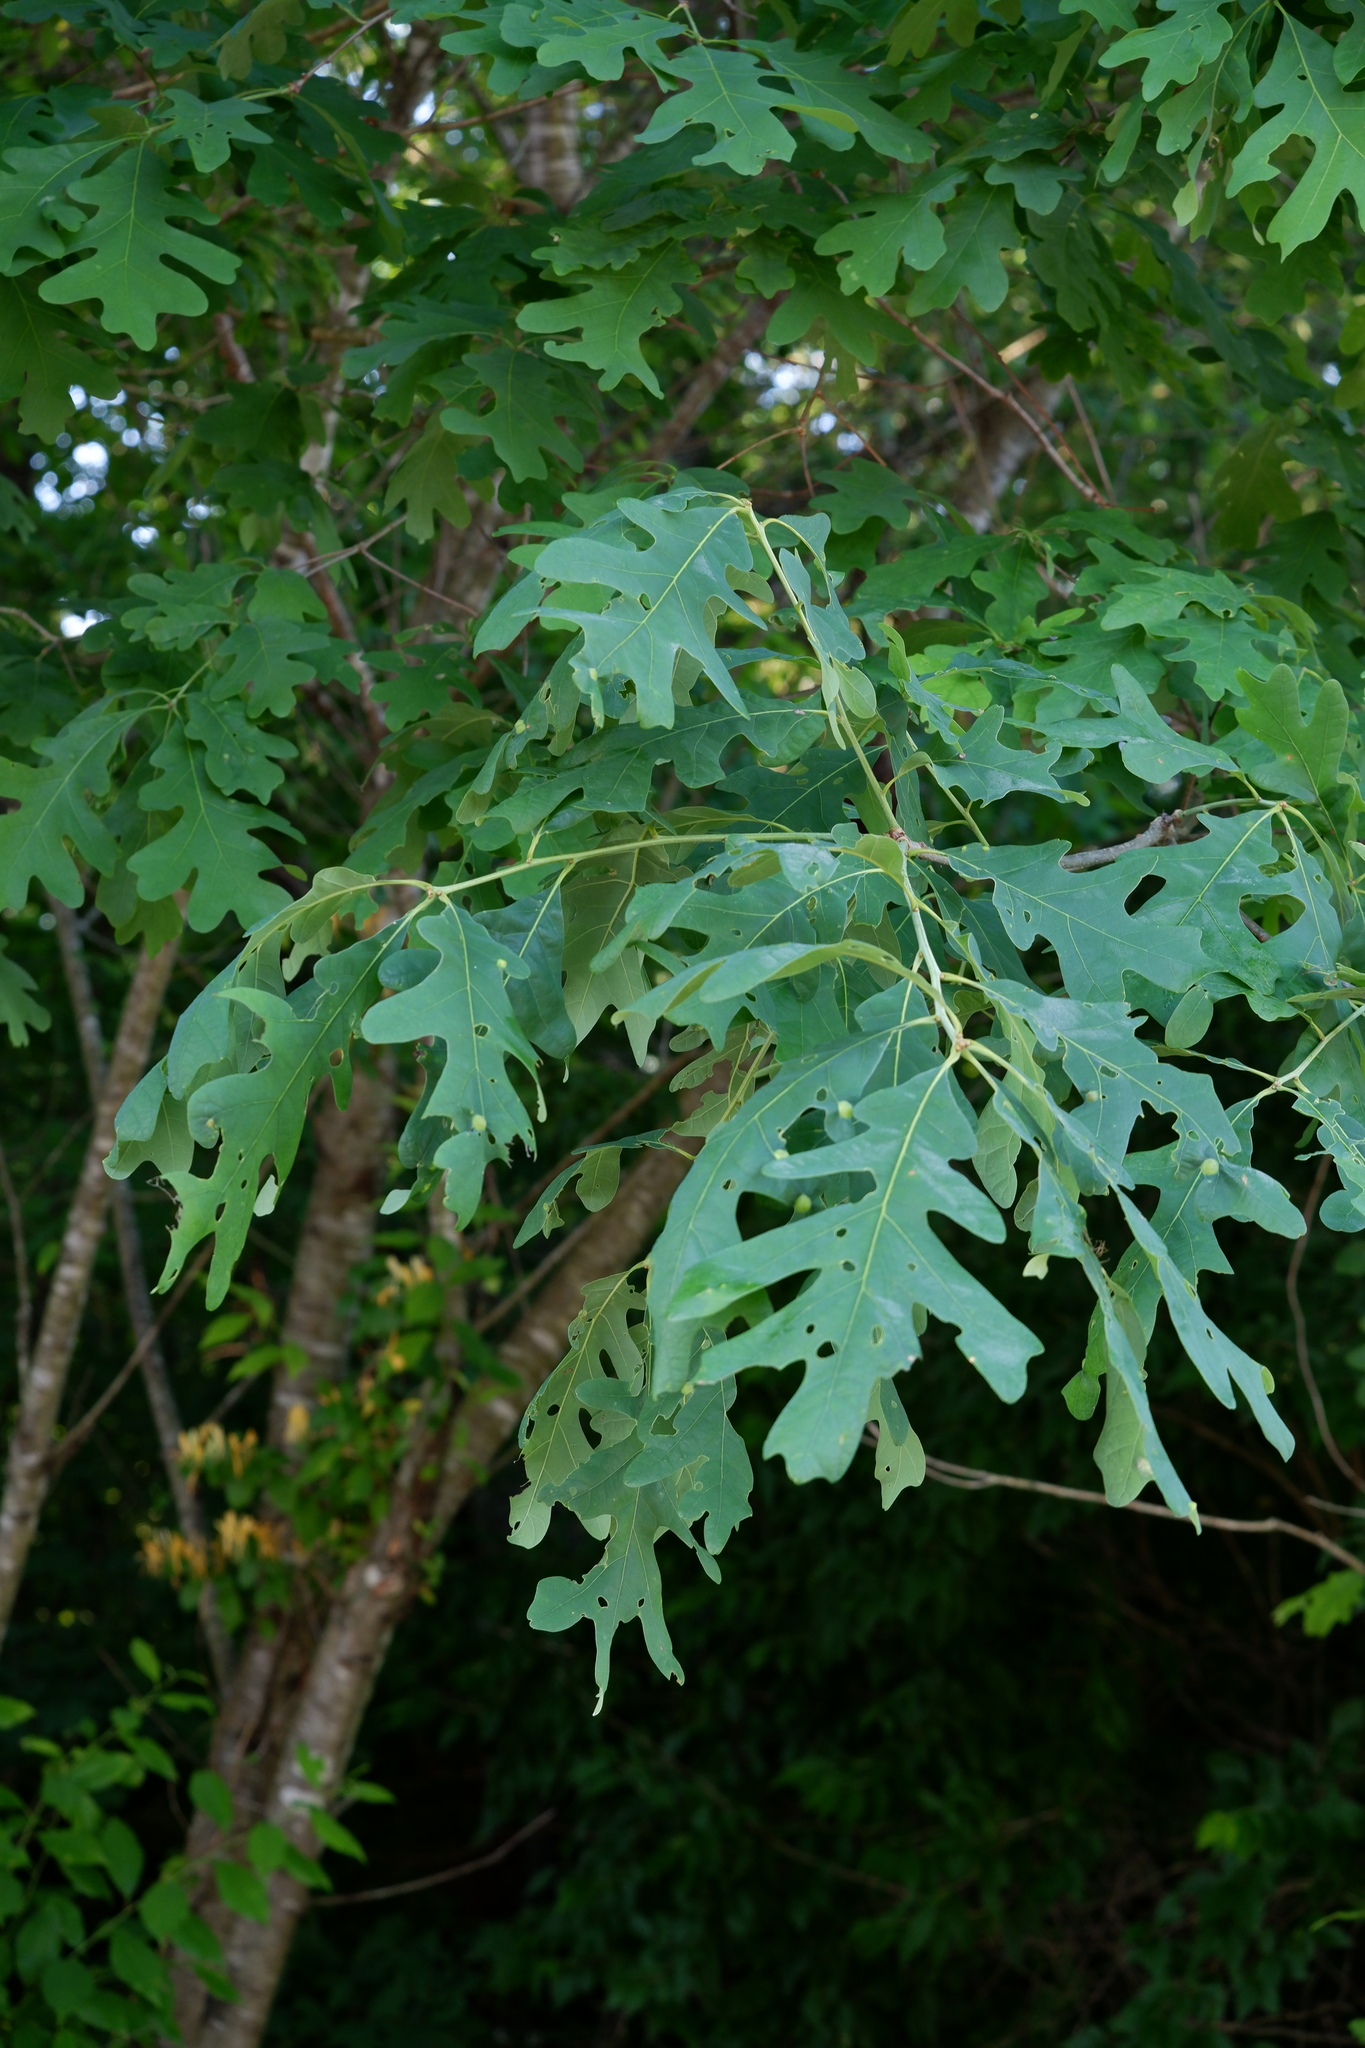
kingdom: Plantae
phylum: Tracheophyta
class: Magnoliopsida
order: Fagales
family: Fagaceae
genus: Quercus
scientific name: Quercus alba
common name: White oak
